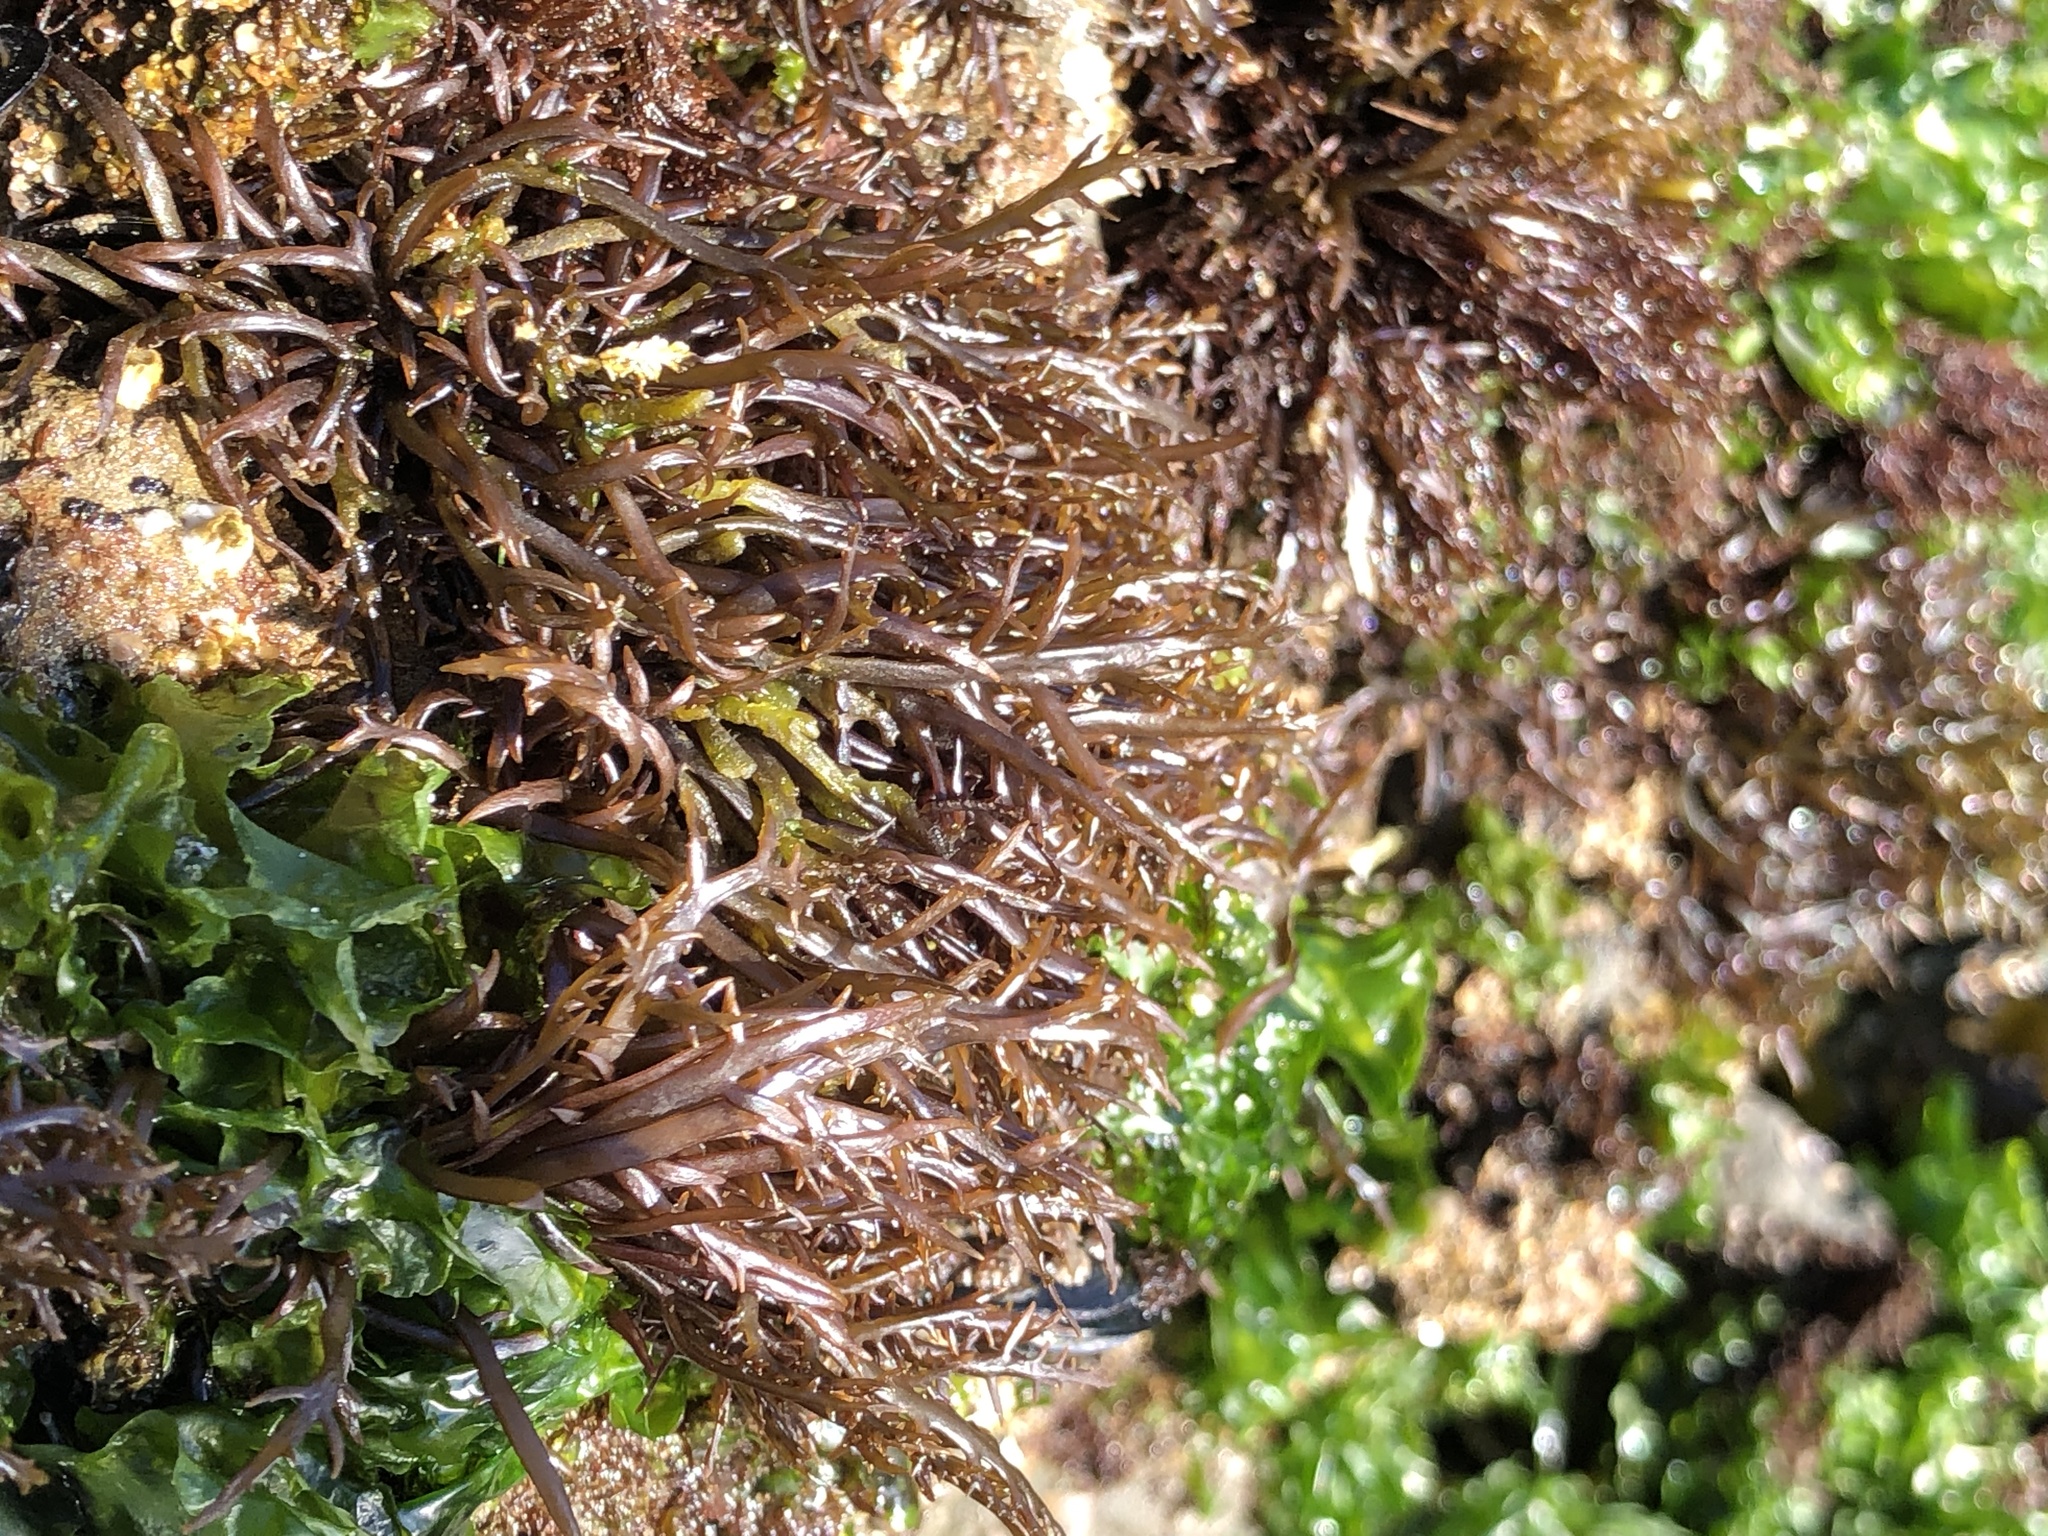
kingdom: Plantae
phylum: Rhodophyta
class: Florideophyceae
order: Gigartinales
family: Gigartinaceae
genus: Chondracanthus
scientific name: Chondracanthus canaliculatus
